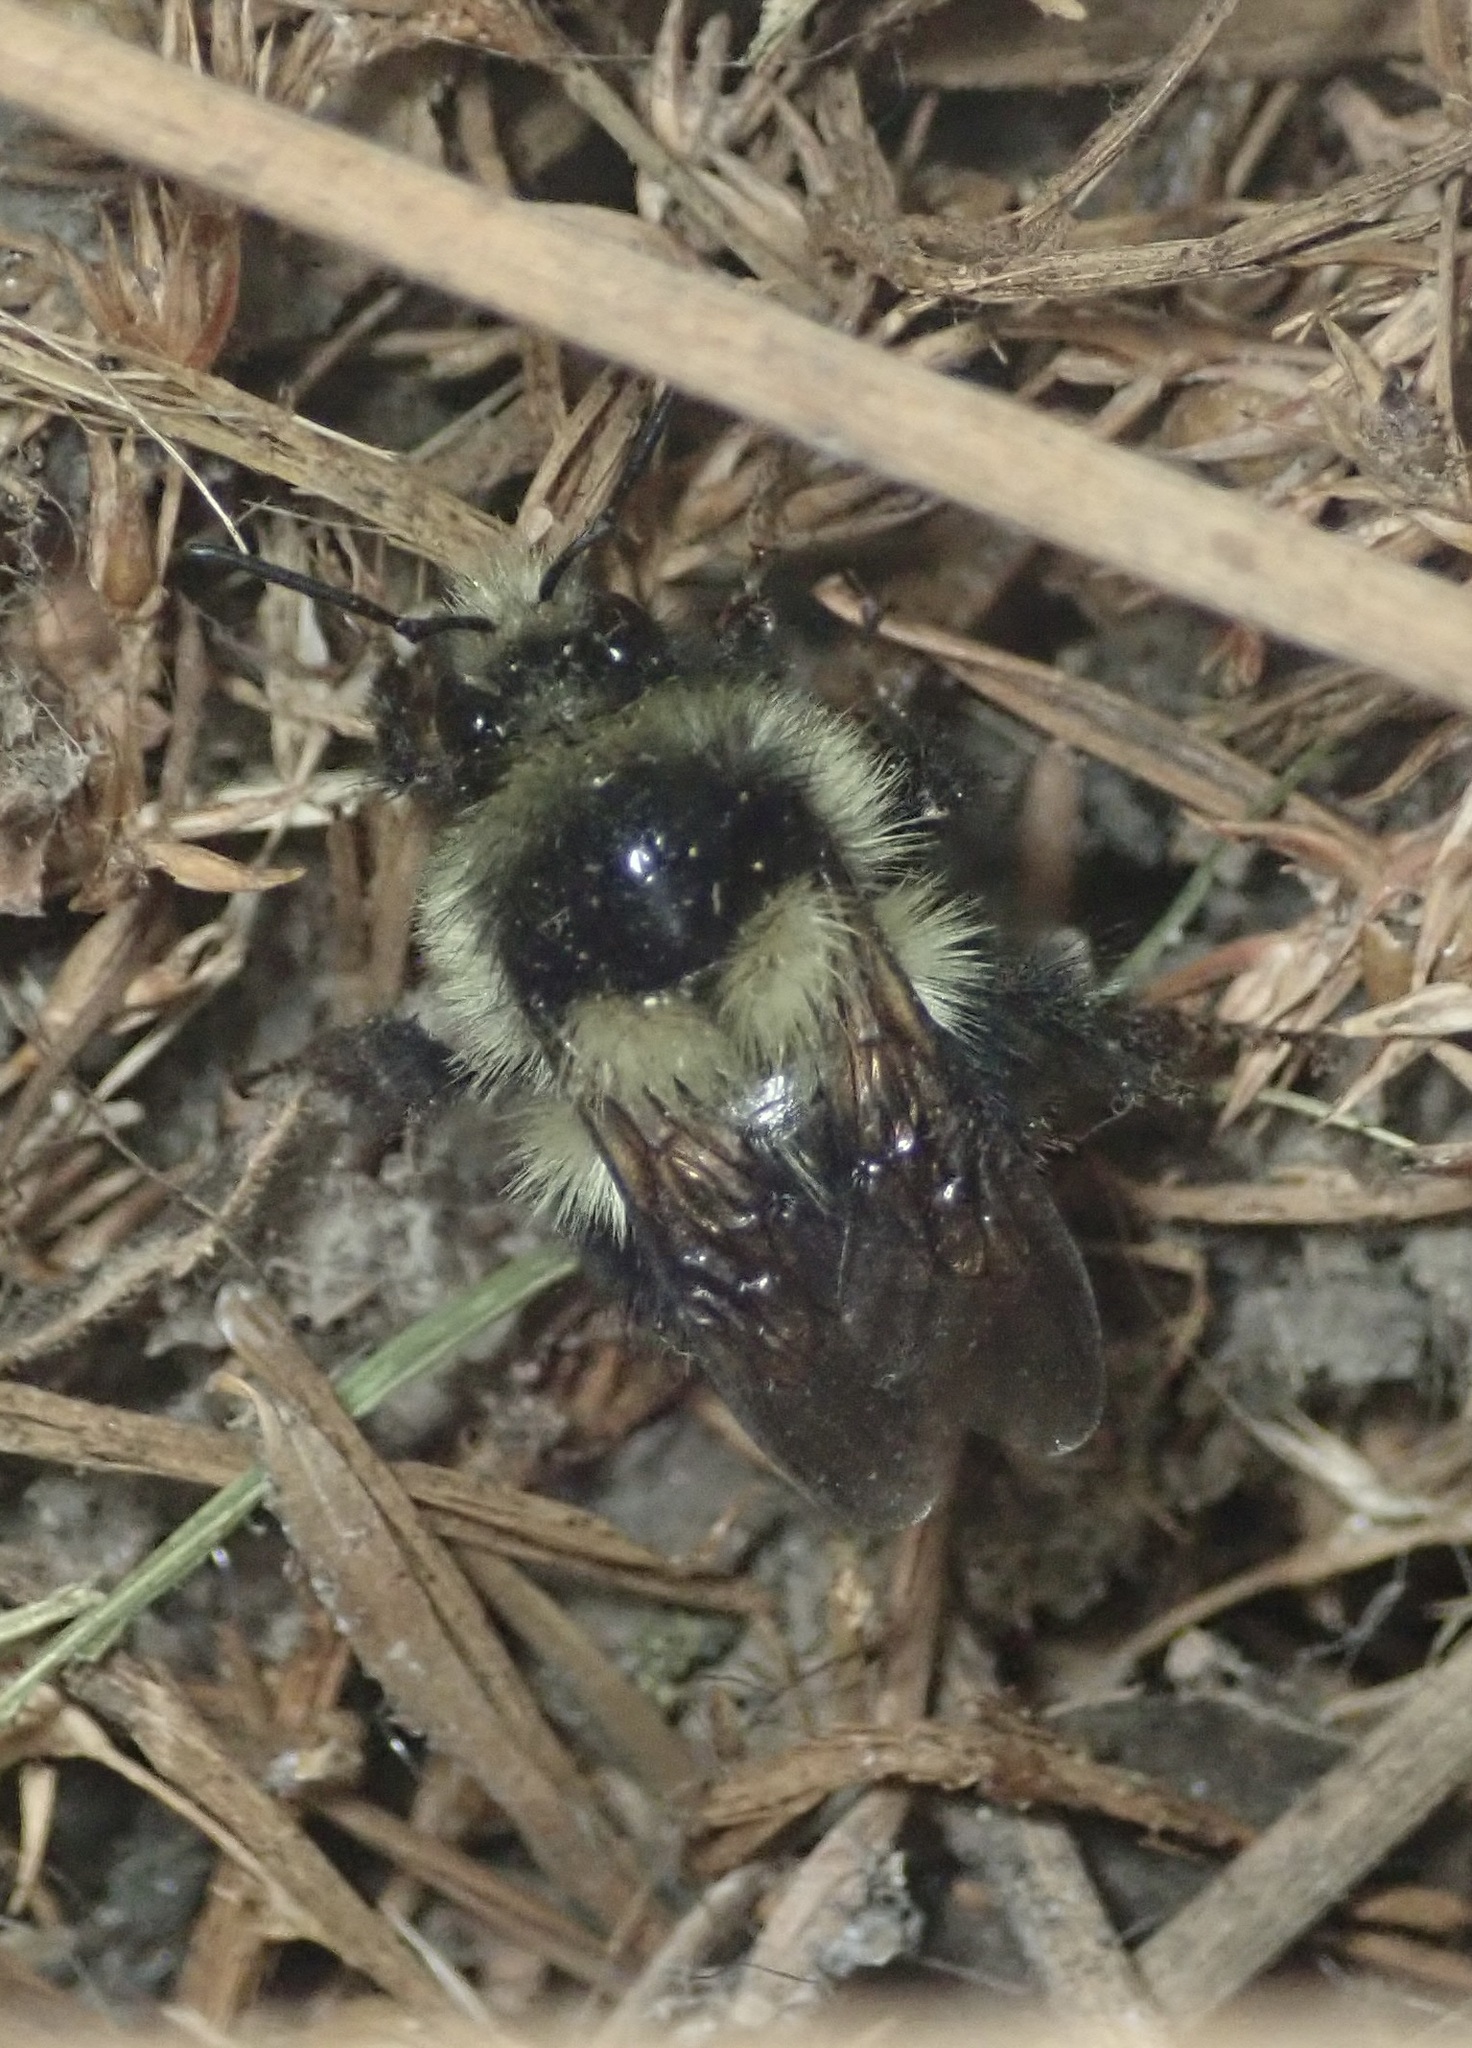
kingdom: Animalia
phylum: Arthropoda
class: Insecta
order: Hymenoptera
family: Apidae
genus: Bombus
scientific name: Bombus melanopygus
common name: Black tail bumble bee
